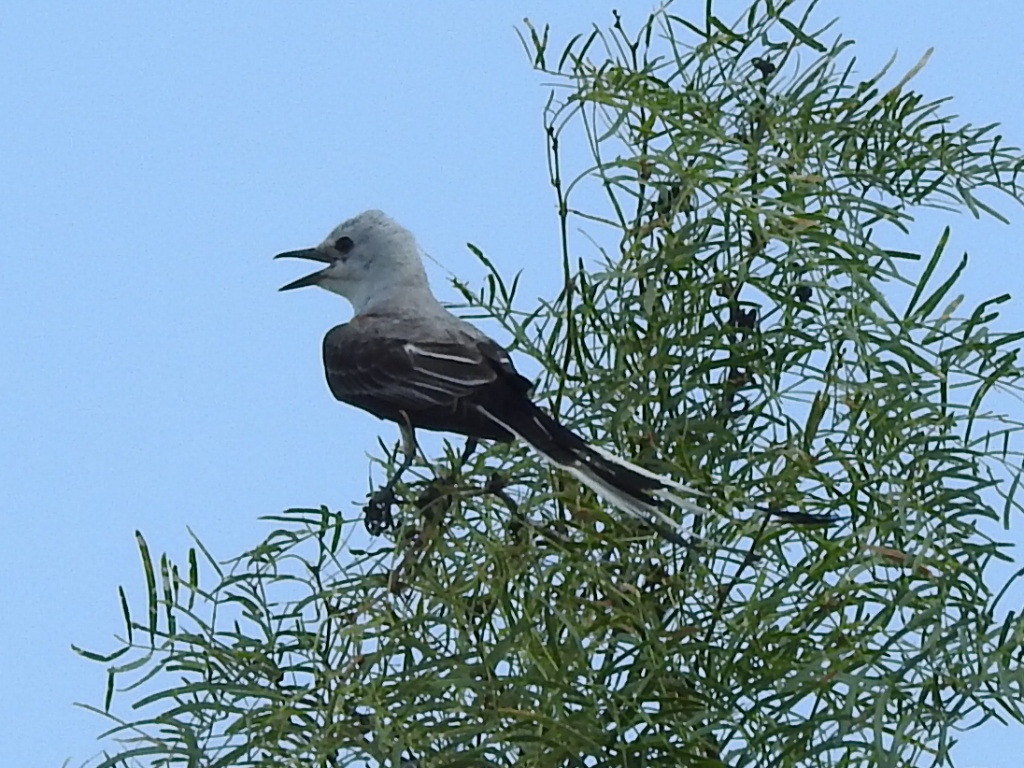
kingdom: Animalia
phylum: Chordata
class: Aves
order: Passeriformes
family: Tyrannidae
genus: Tyrannus
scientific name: Tyrannus forficatus
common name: Scissor-tailed flycatcher
